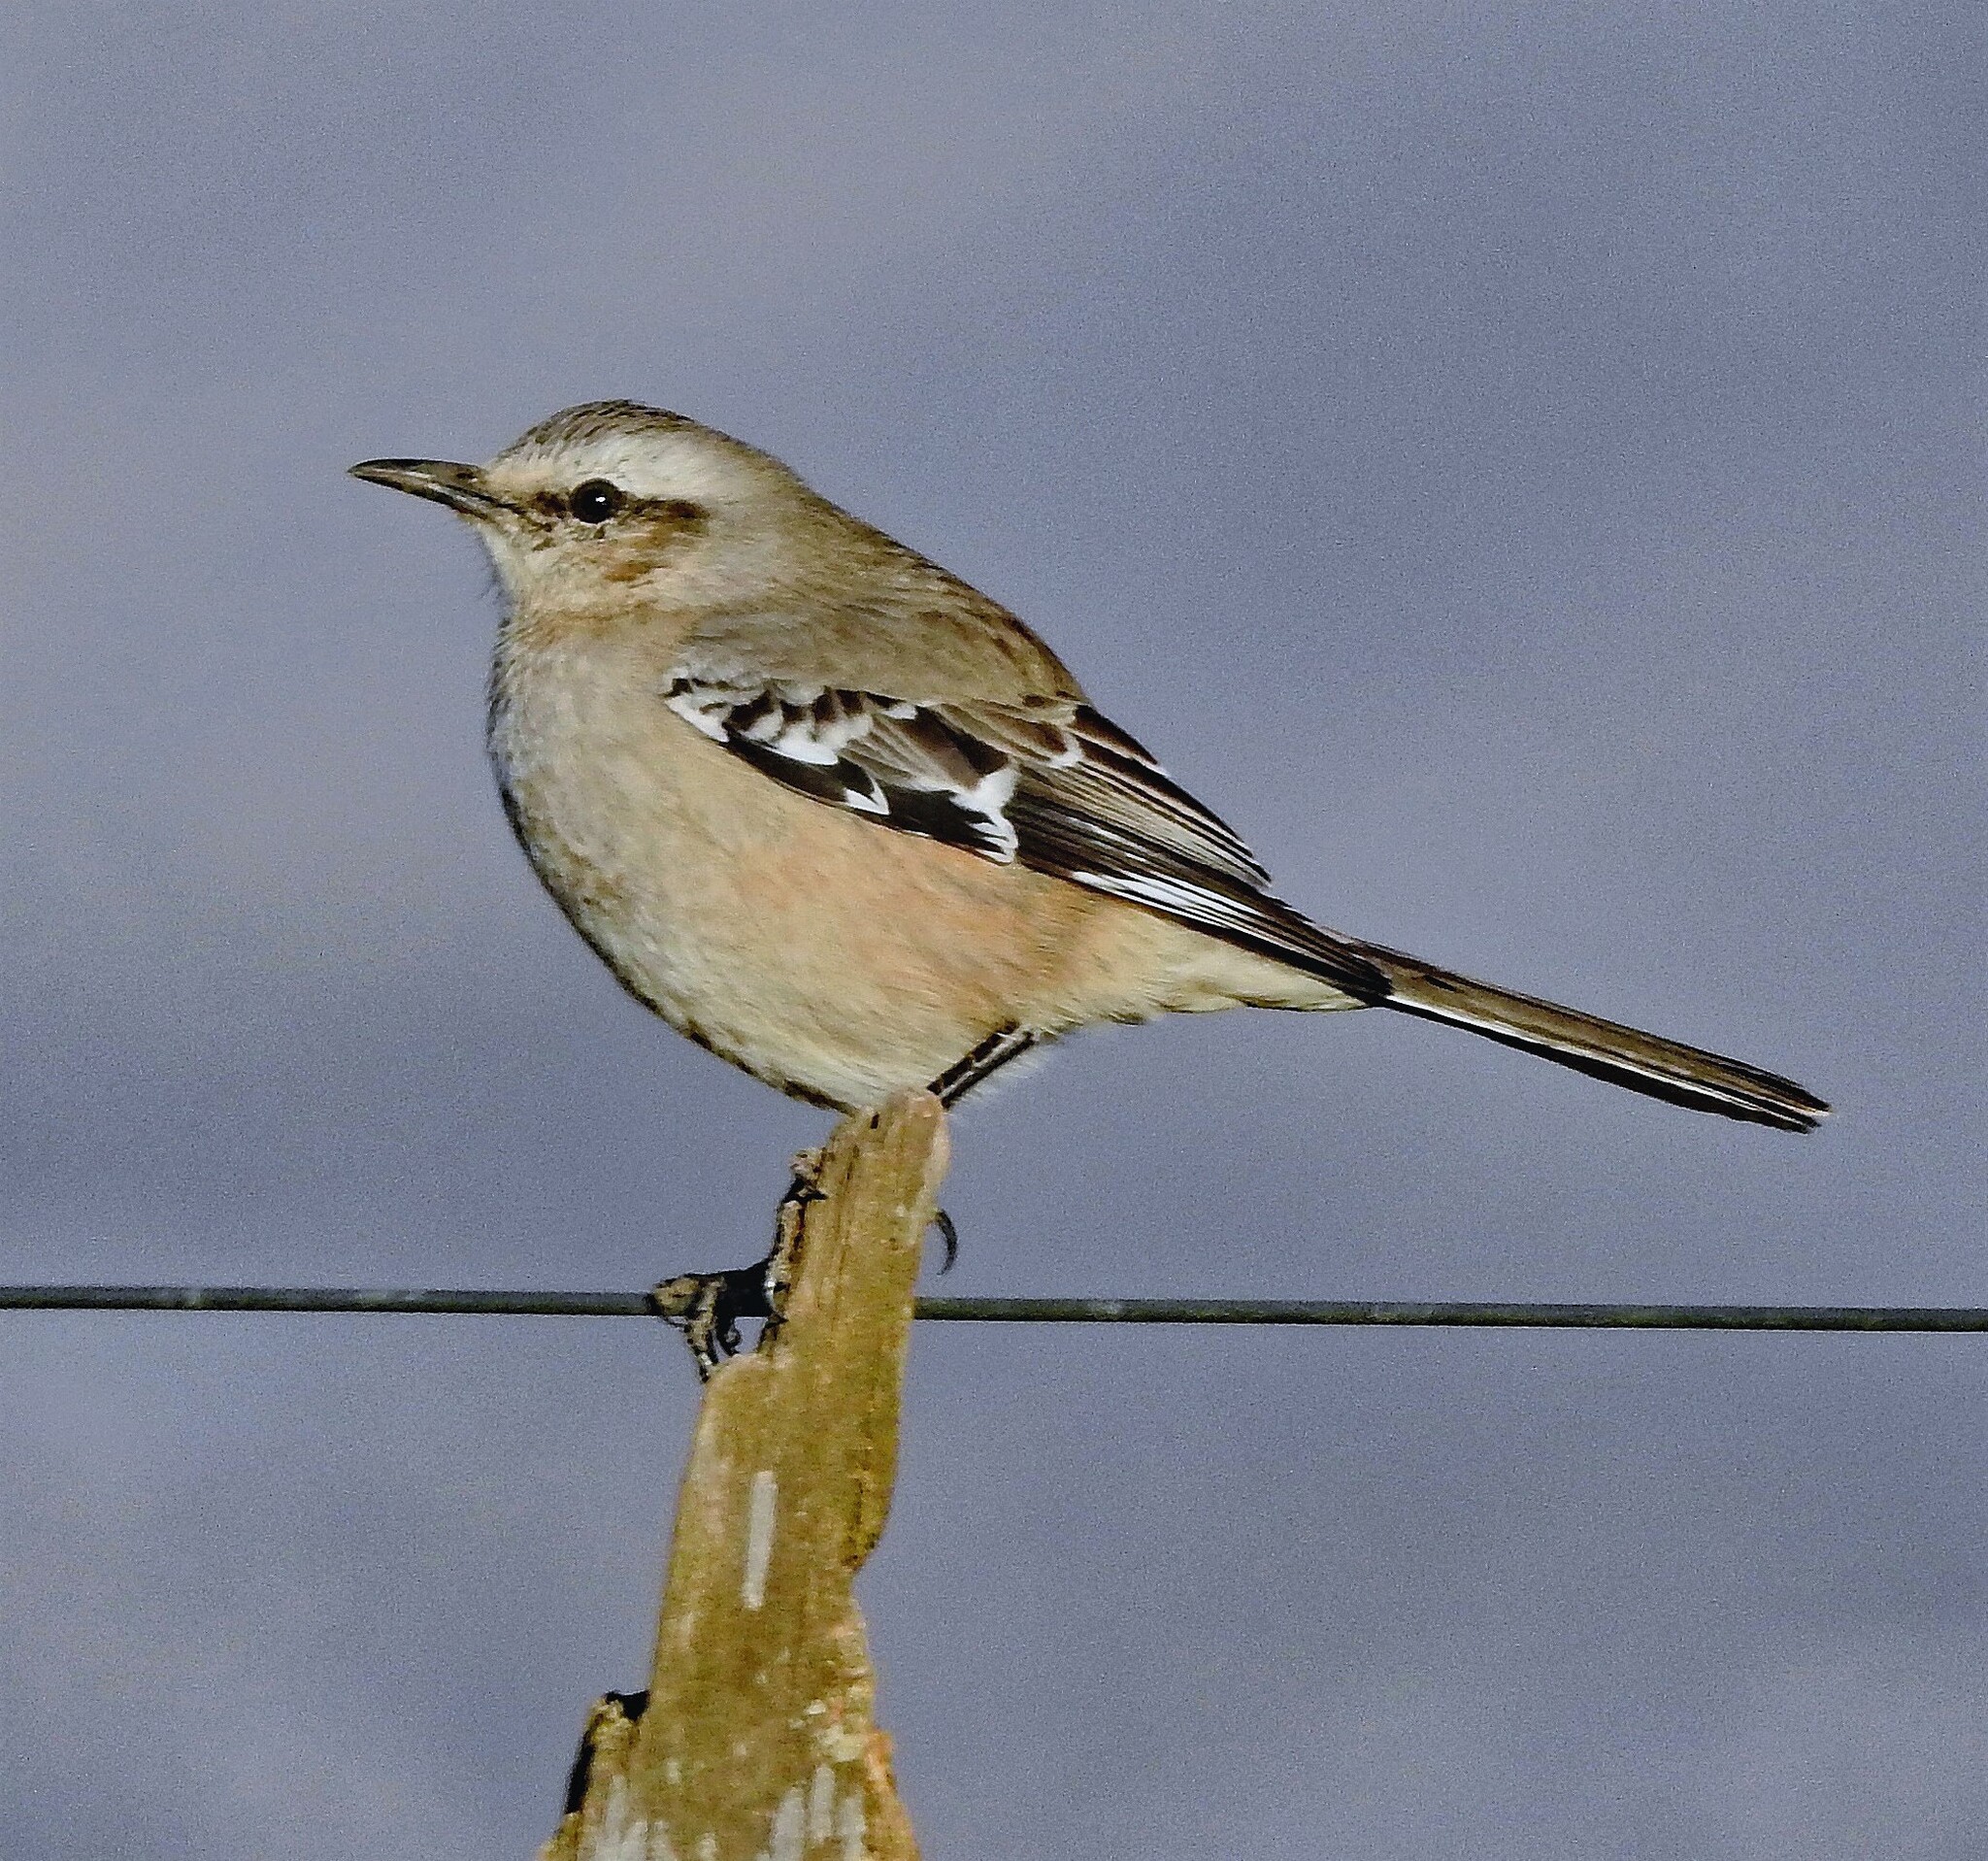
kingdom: Animalia
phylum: Chordata
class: Aves
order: Passeriformes
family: Mimidae
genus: Mimus
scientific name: Mimus patagonicus
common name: Patagonian mockingbird
